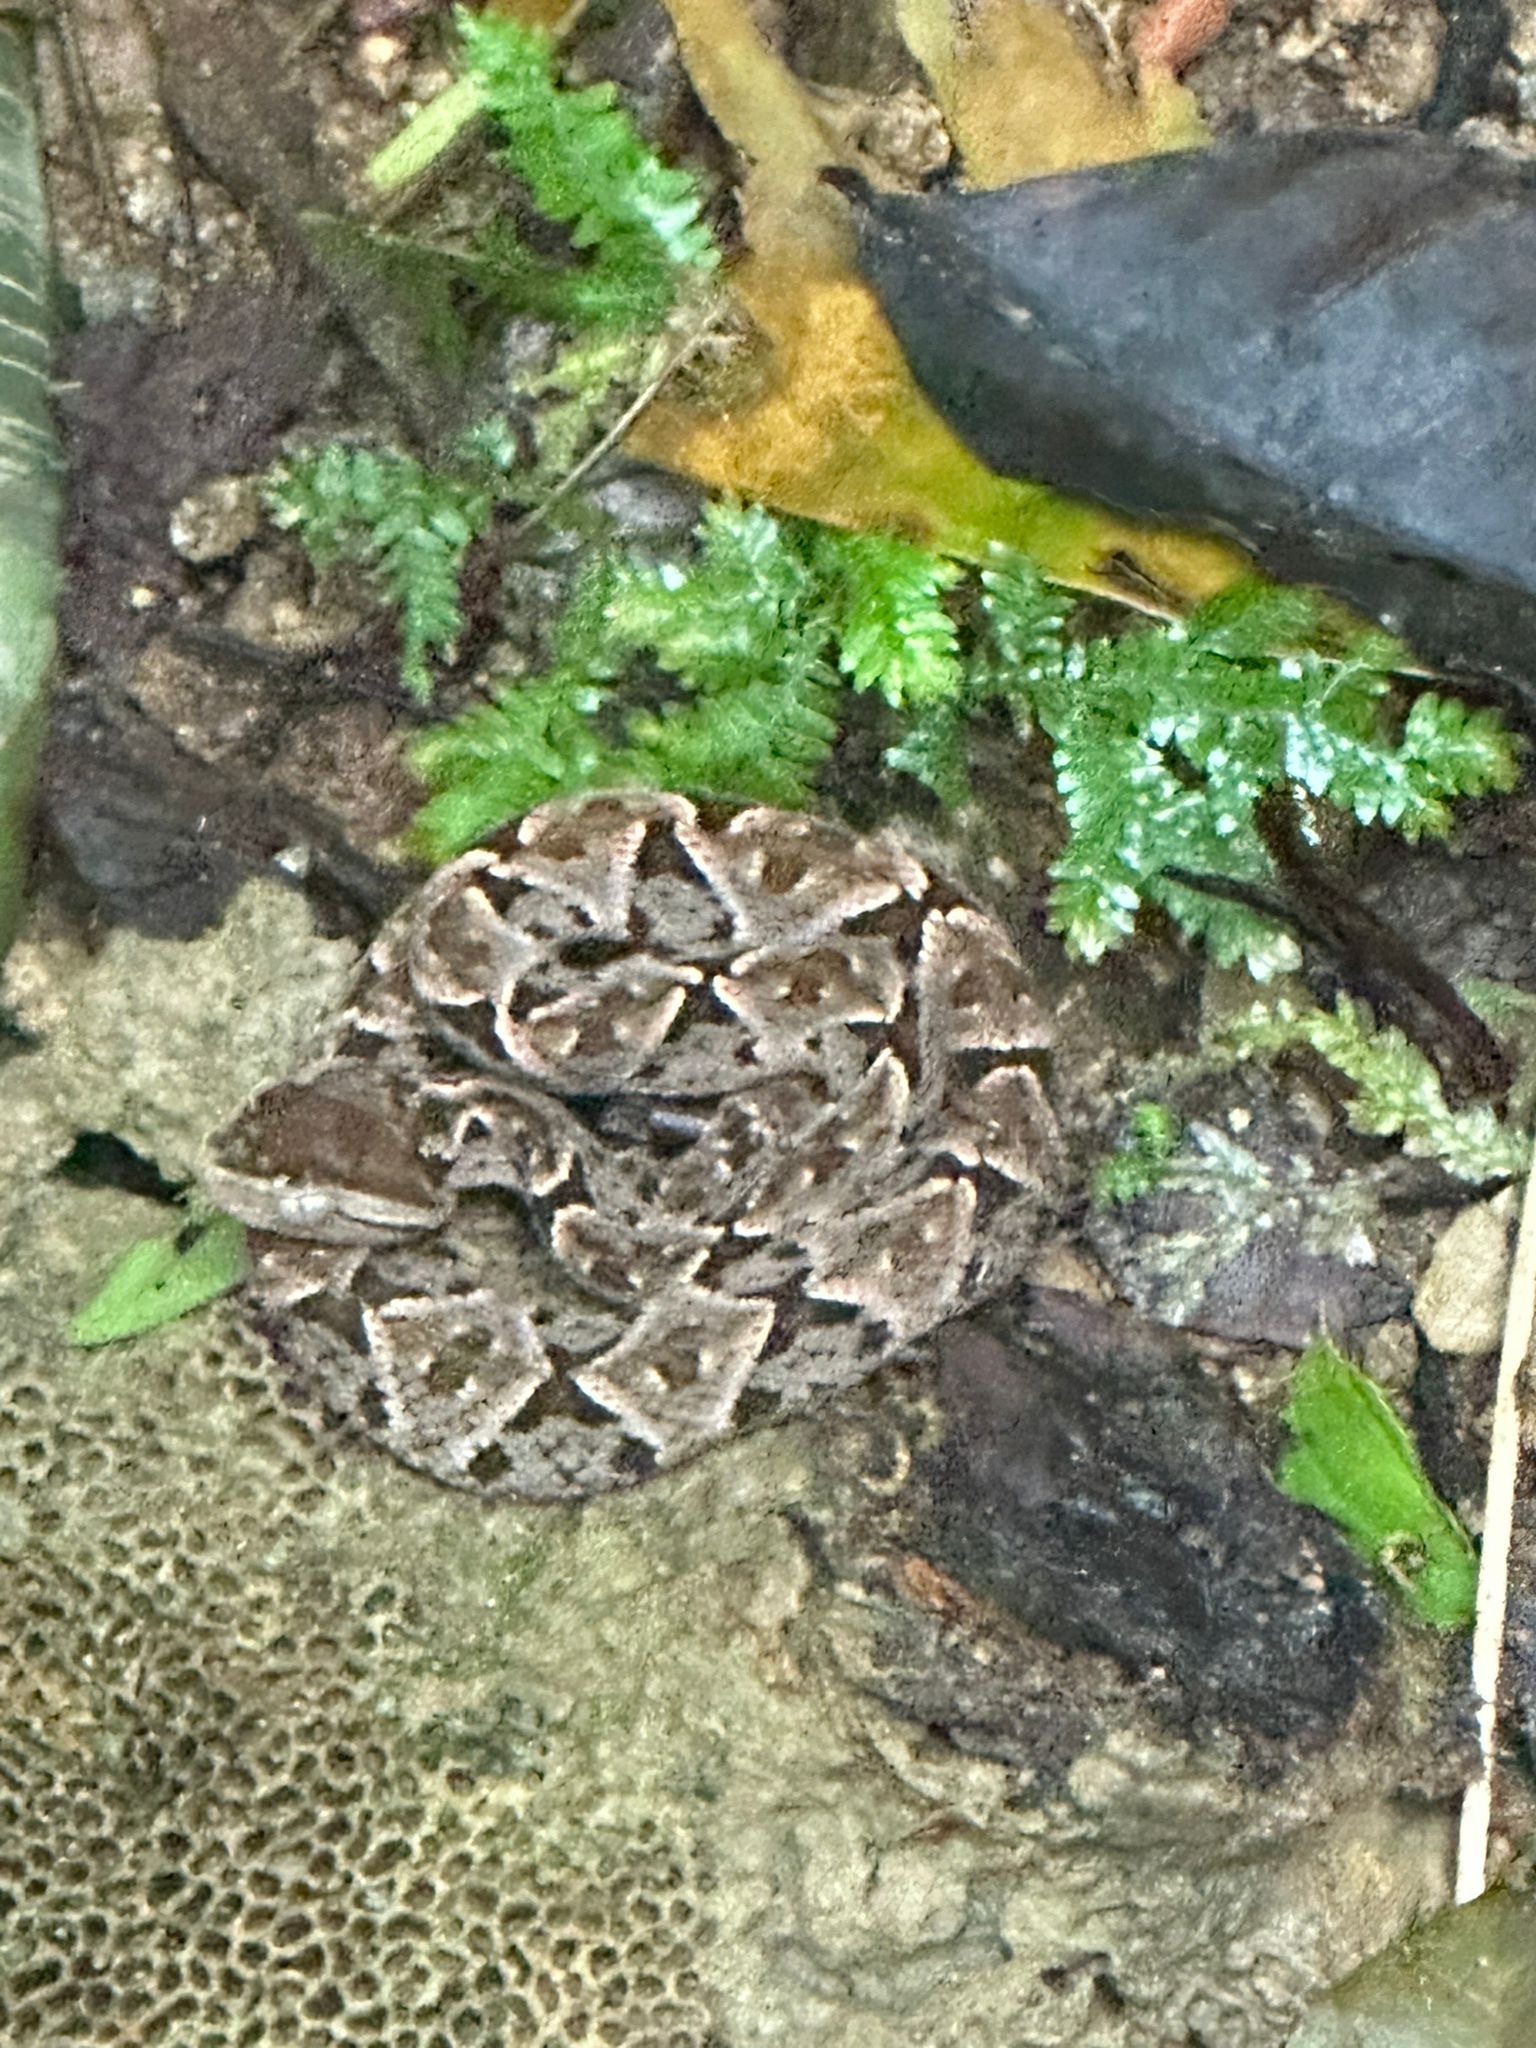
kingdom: Animalia
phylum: Chordata
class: Squamata
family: Viperidae
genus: Bothrops
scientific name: Bothrops asper
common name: Terciopelo
